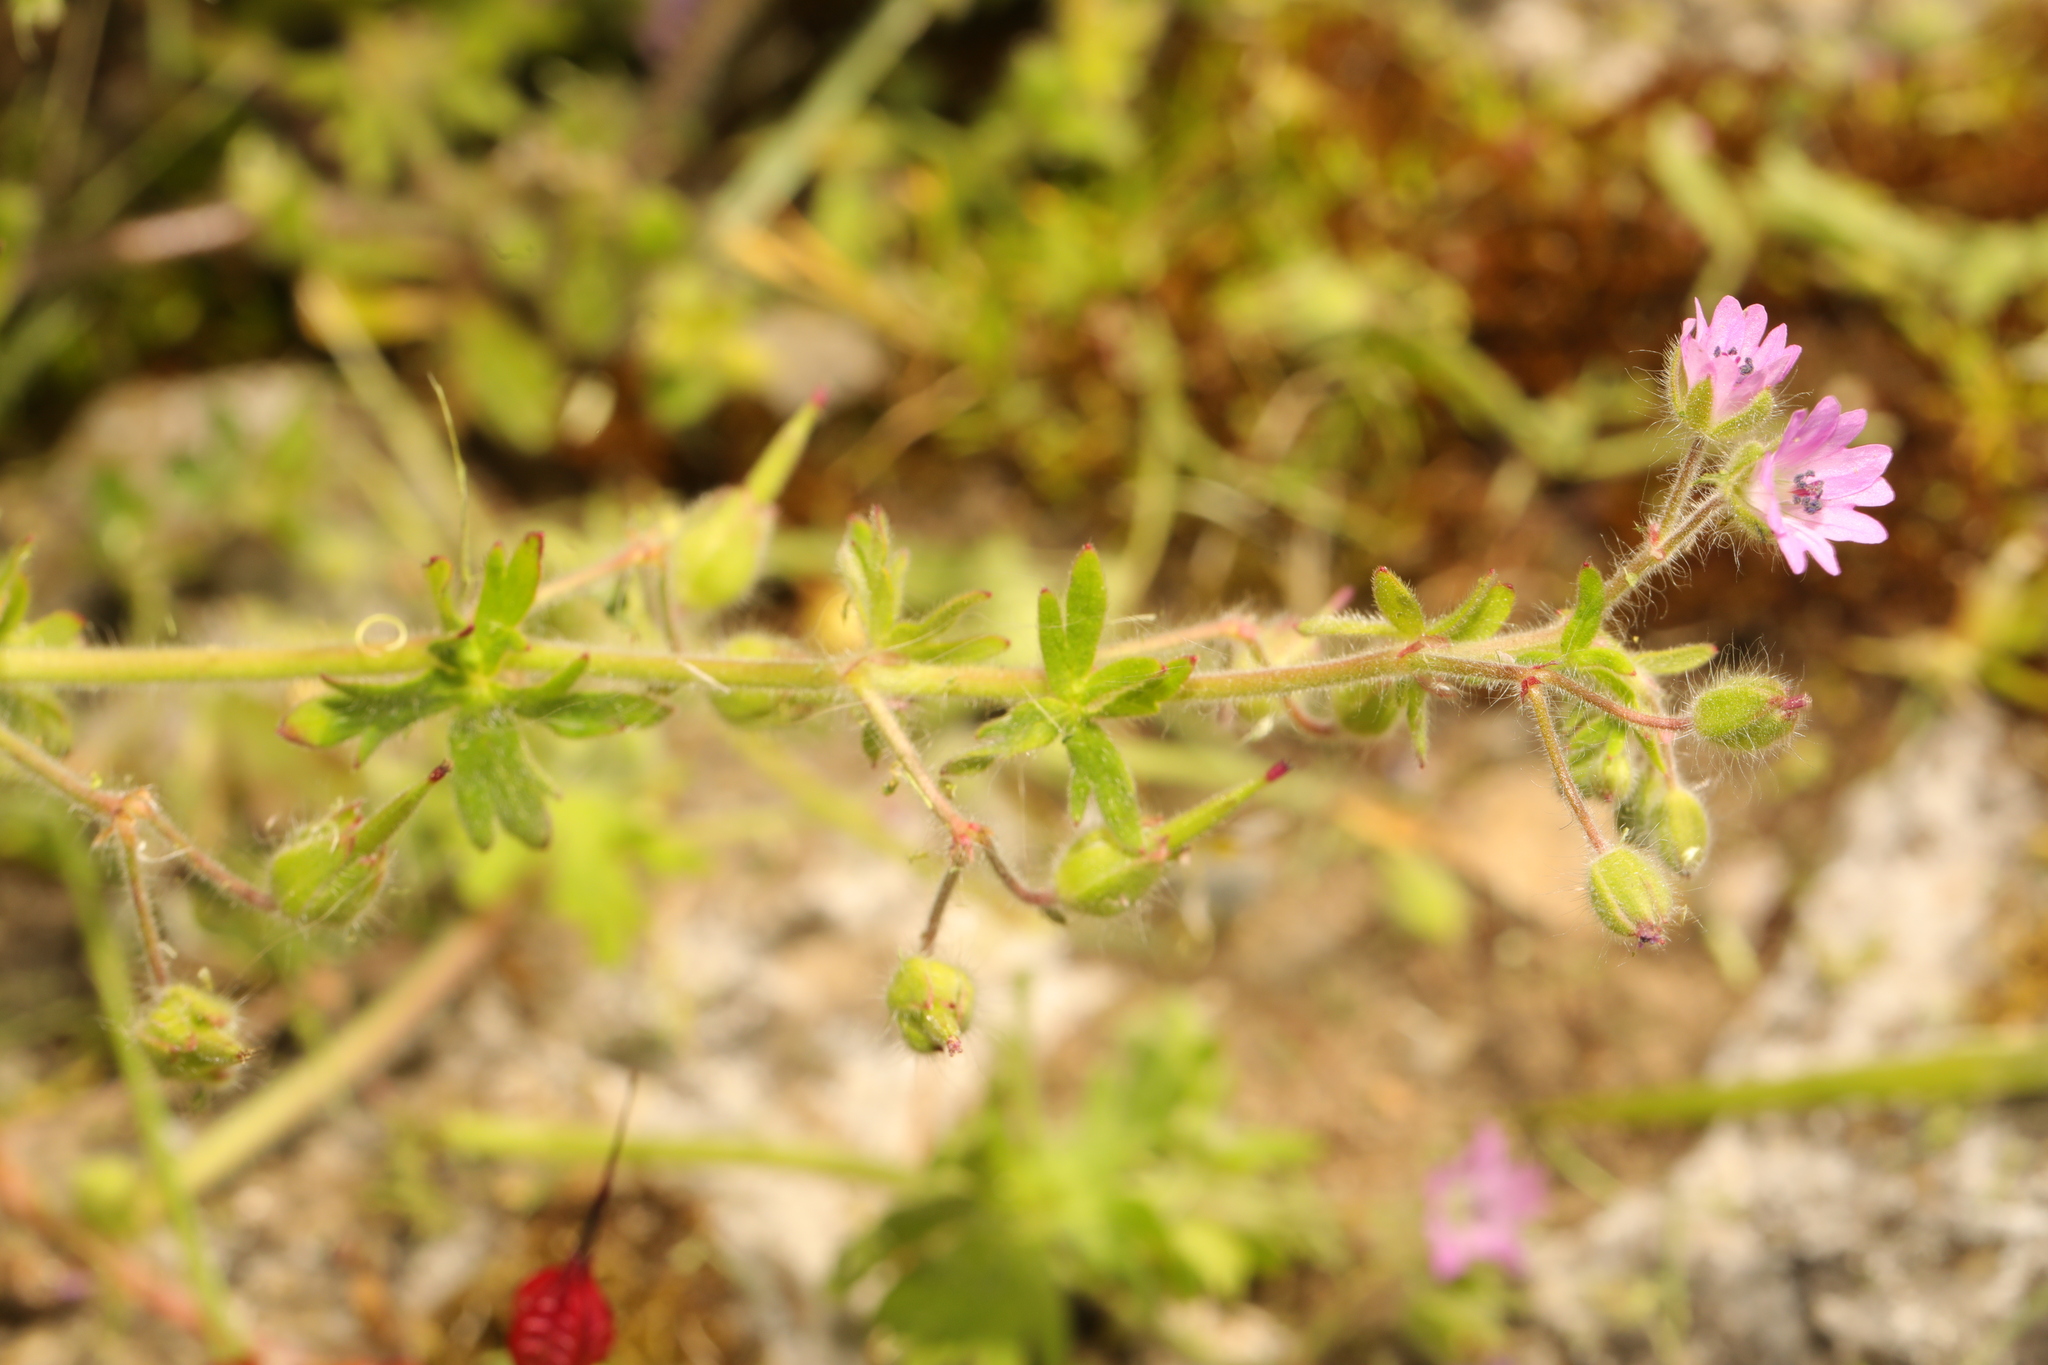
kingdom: Plantae
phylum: Tracheophyta
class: Magnoliopsida
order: Geraniales
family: Geraniaceae
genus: Geranium
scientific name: Geranium molle
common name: Dove's-foot crane's-bill
